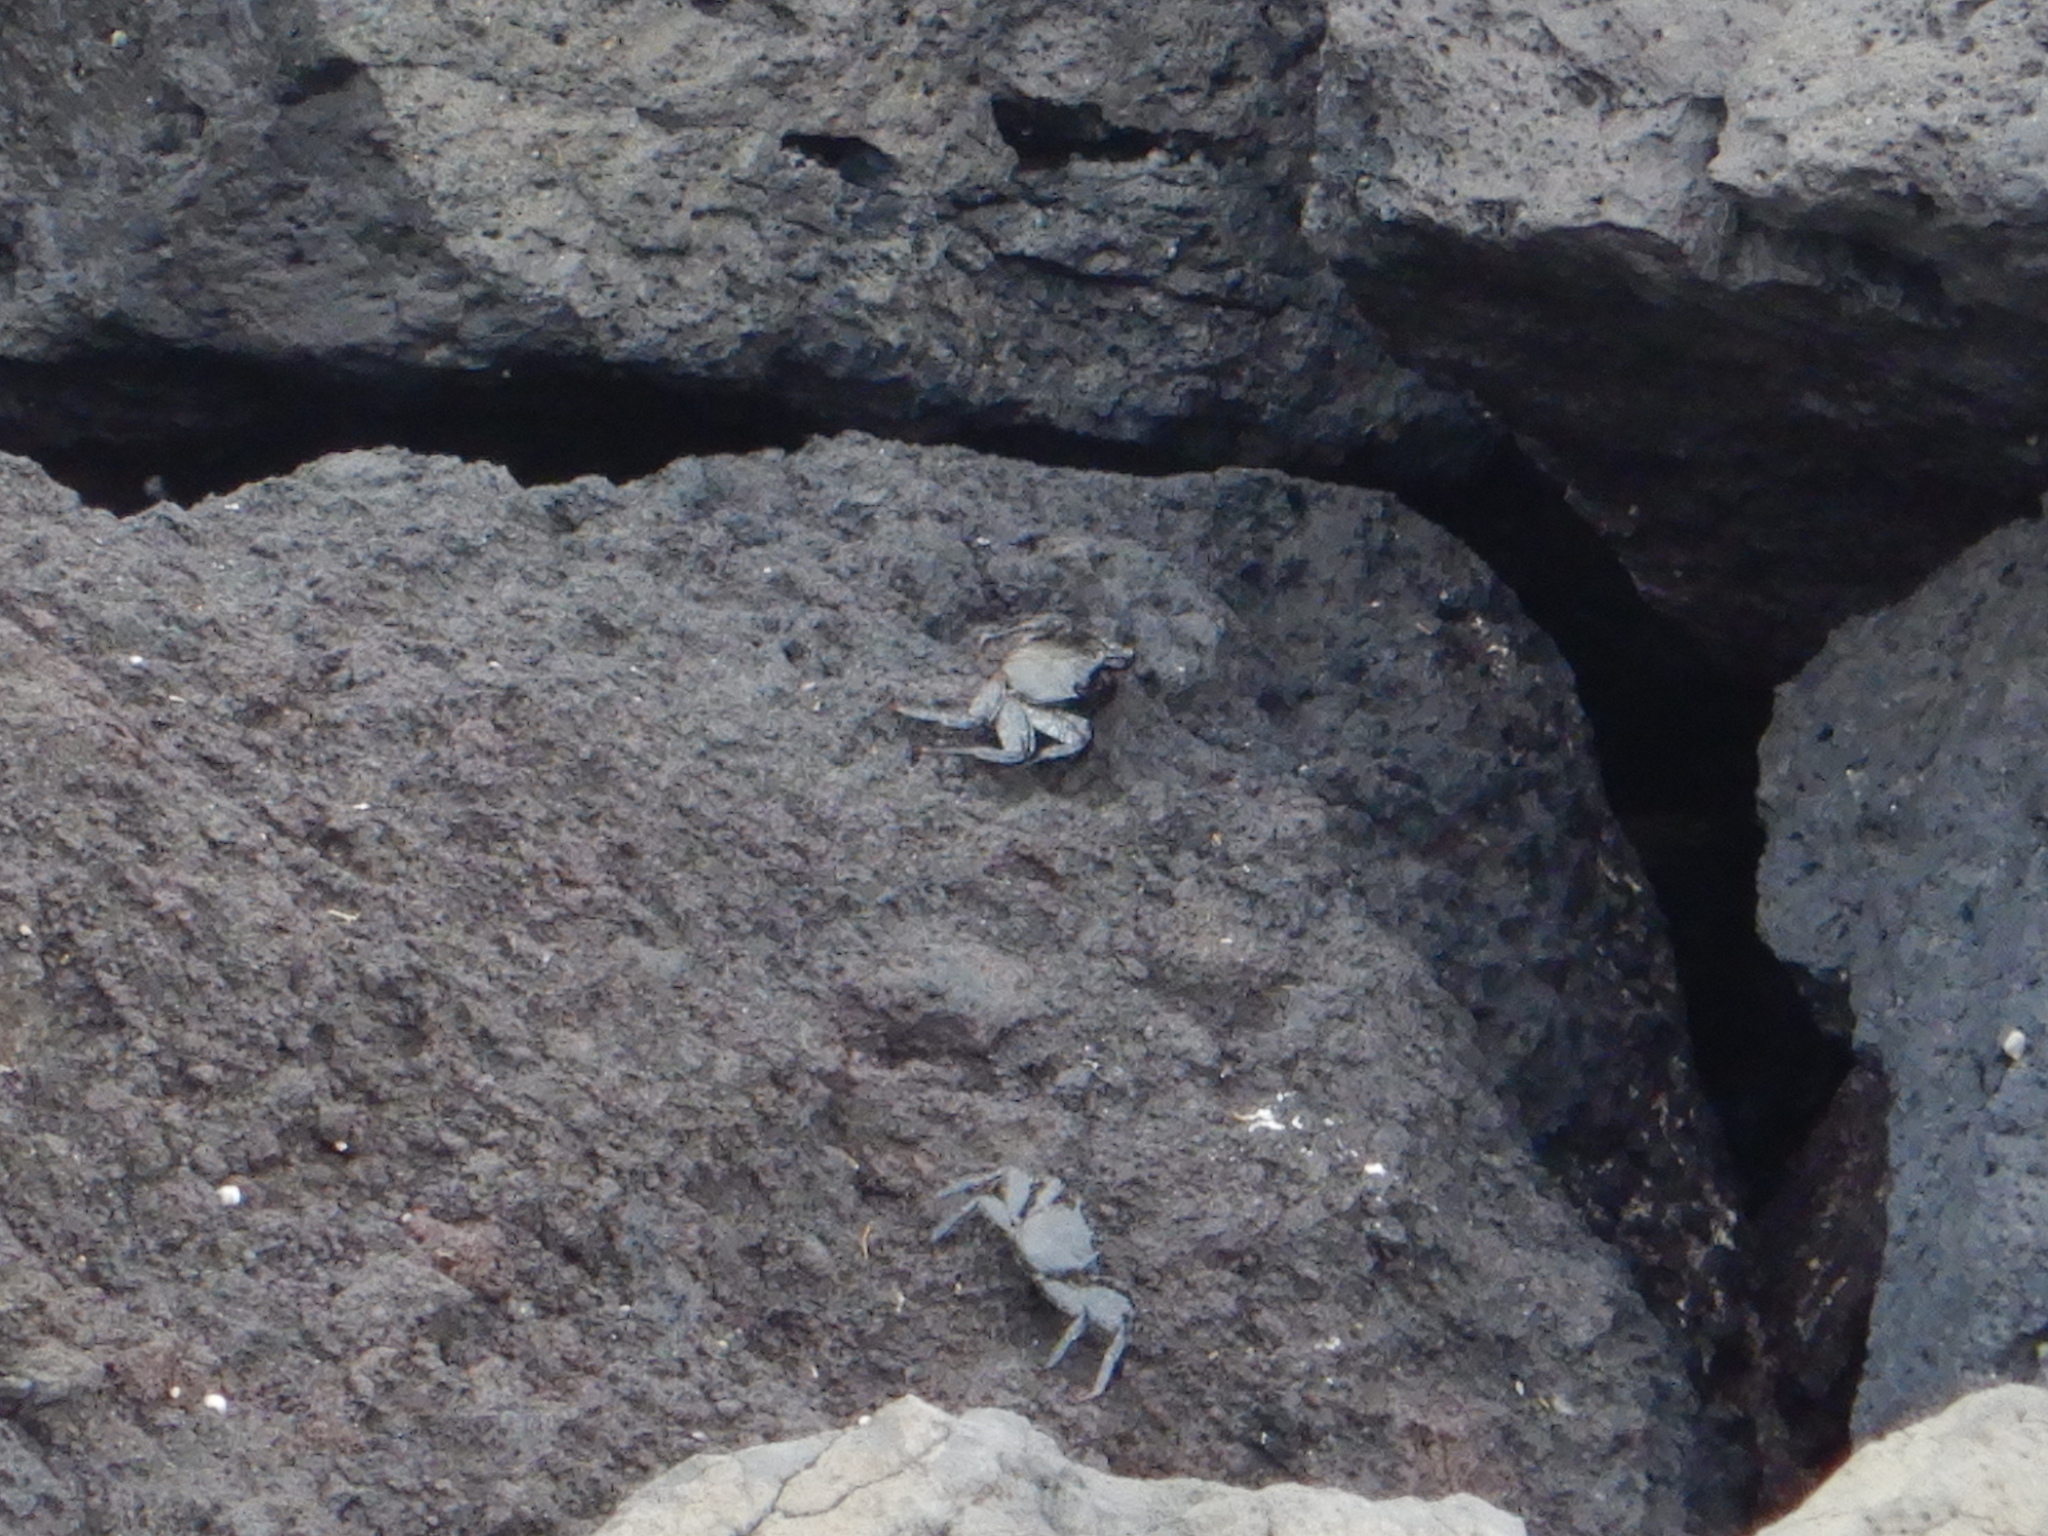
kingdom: Animalia
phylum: Arthropoda
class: Malacostraca
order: Decapoda
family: Grapsidae
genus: Grapsus
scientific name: Grapsus adscensionis
